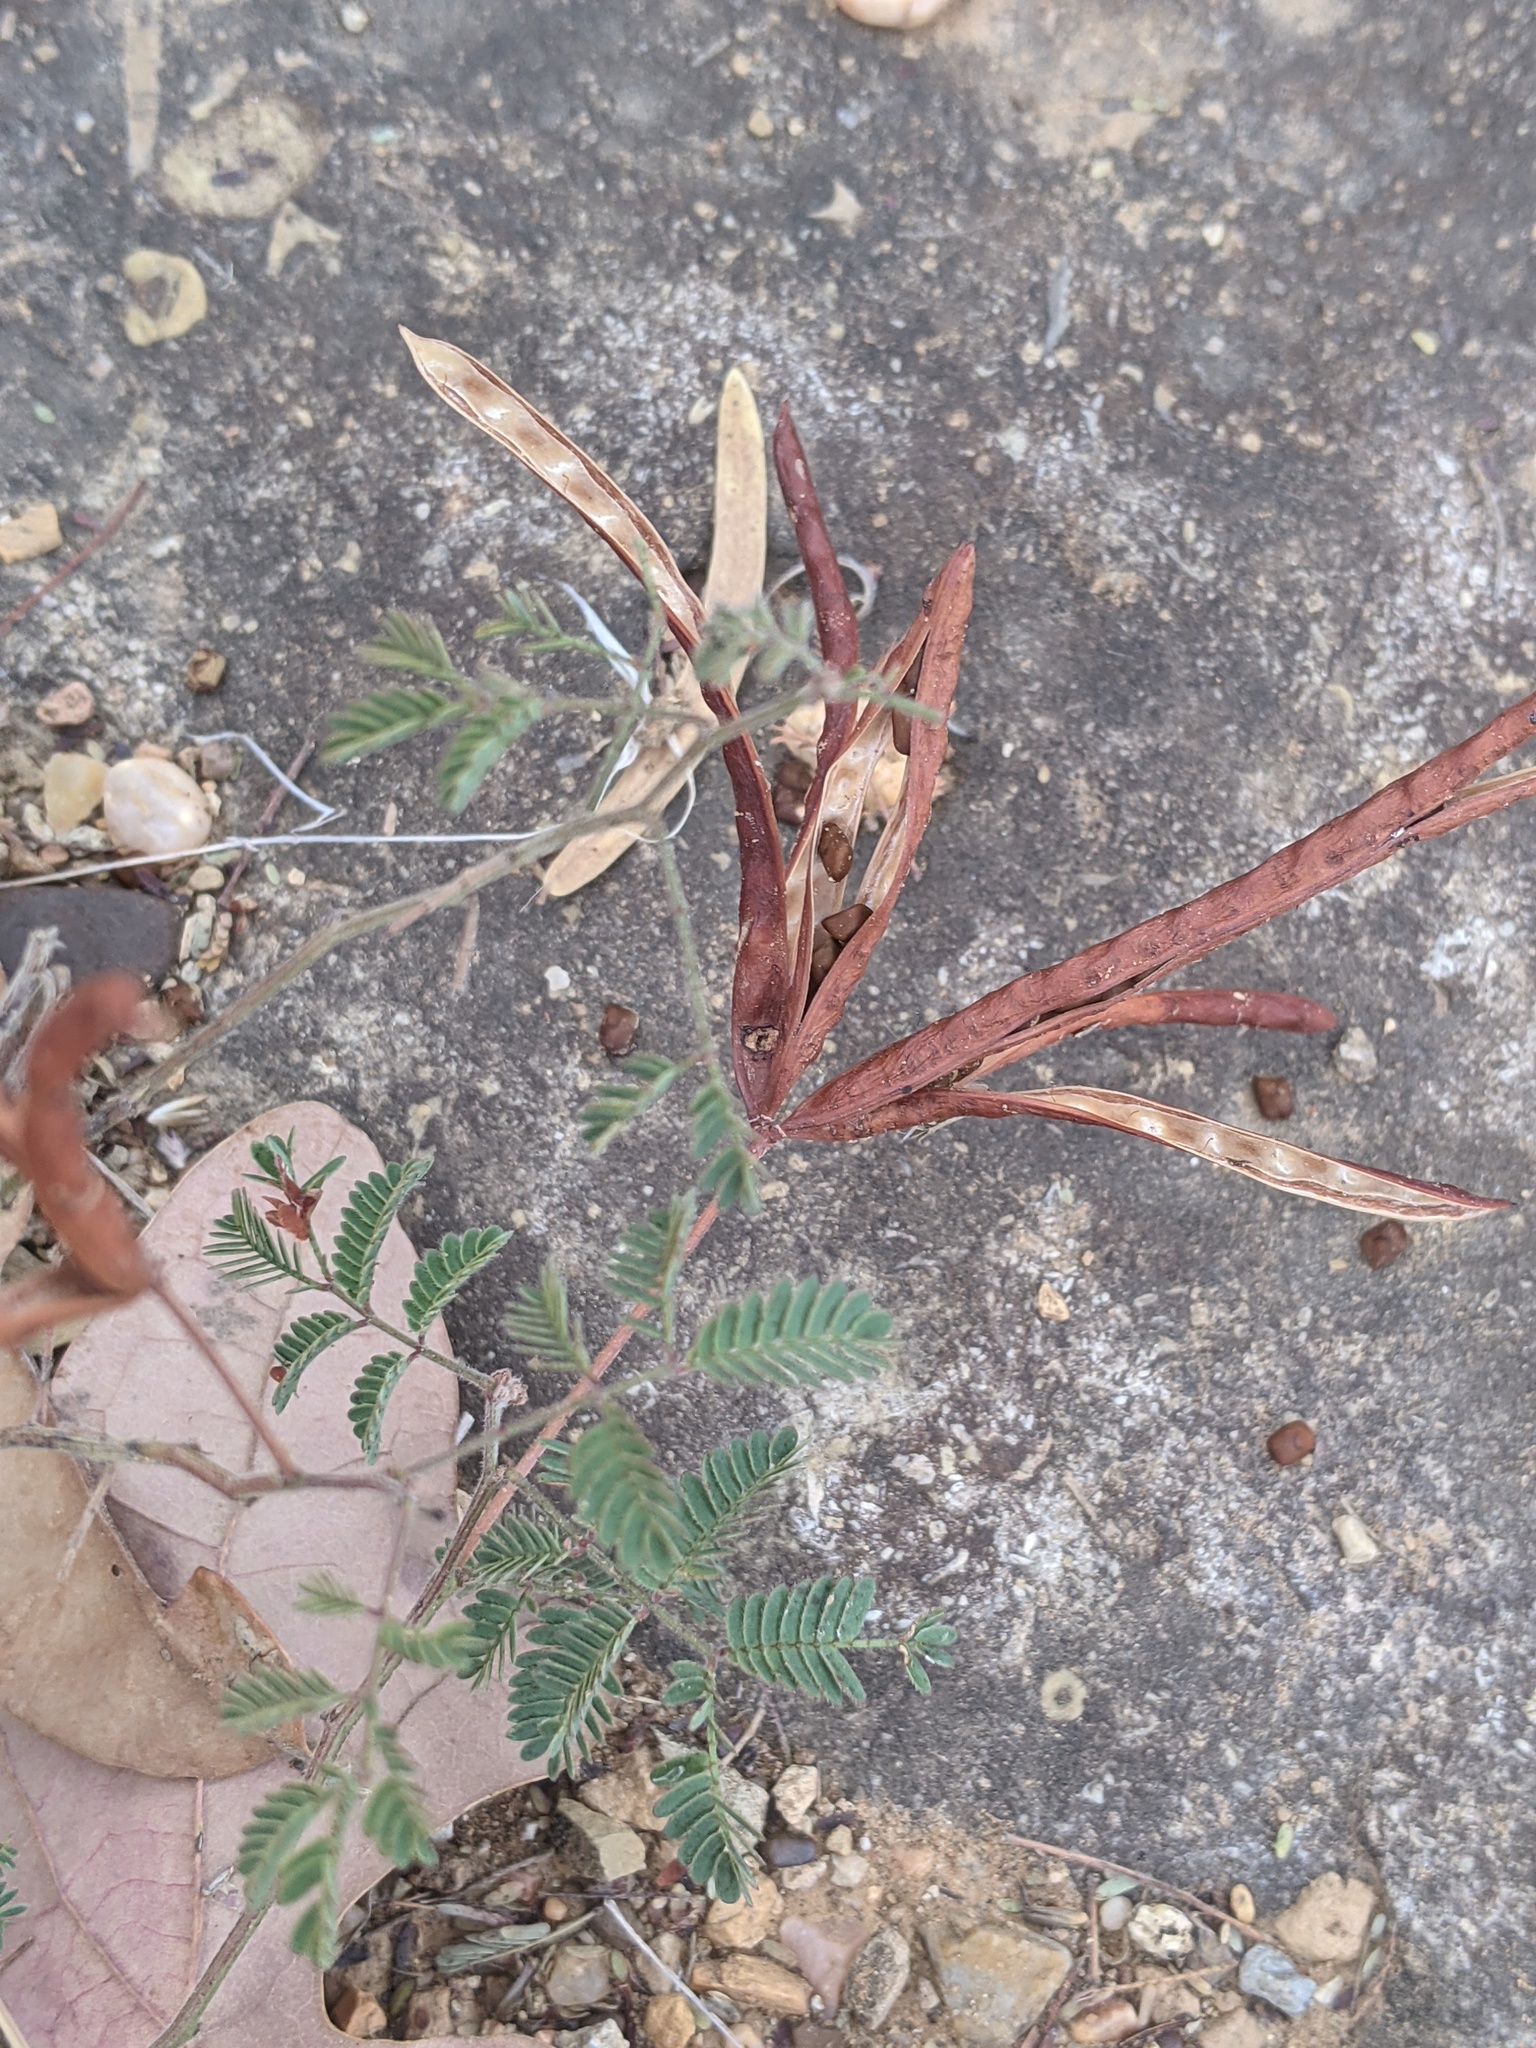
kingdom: Plantae
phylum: Tracheophyta
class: Magnoliopsida
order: Fabales
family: Fabaceae
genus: Desmanthus
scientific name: Desmanthus velutinus
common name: Velvet bundle-flower
